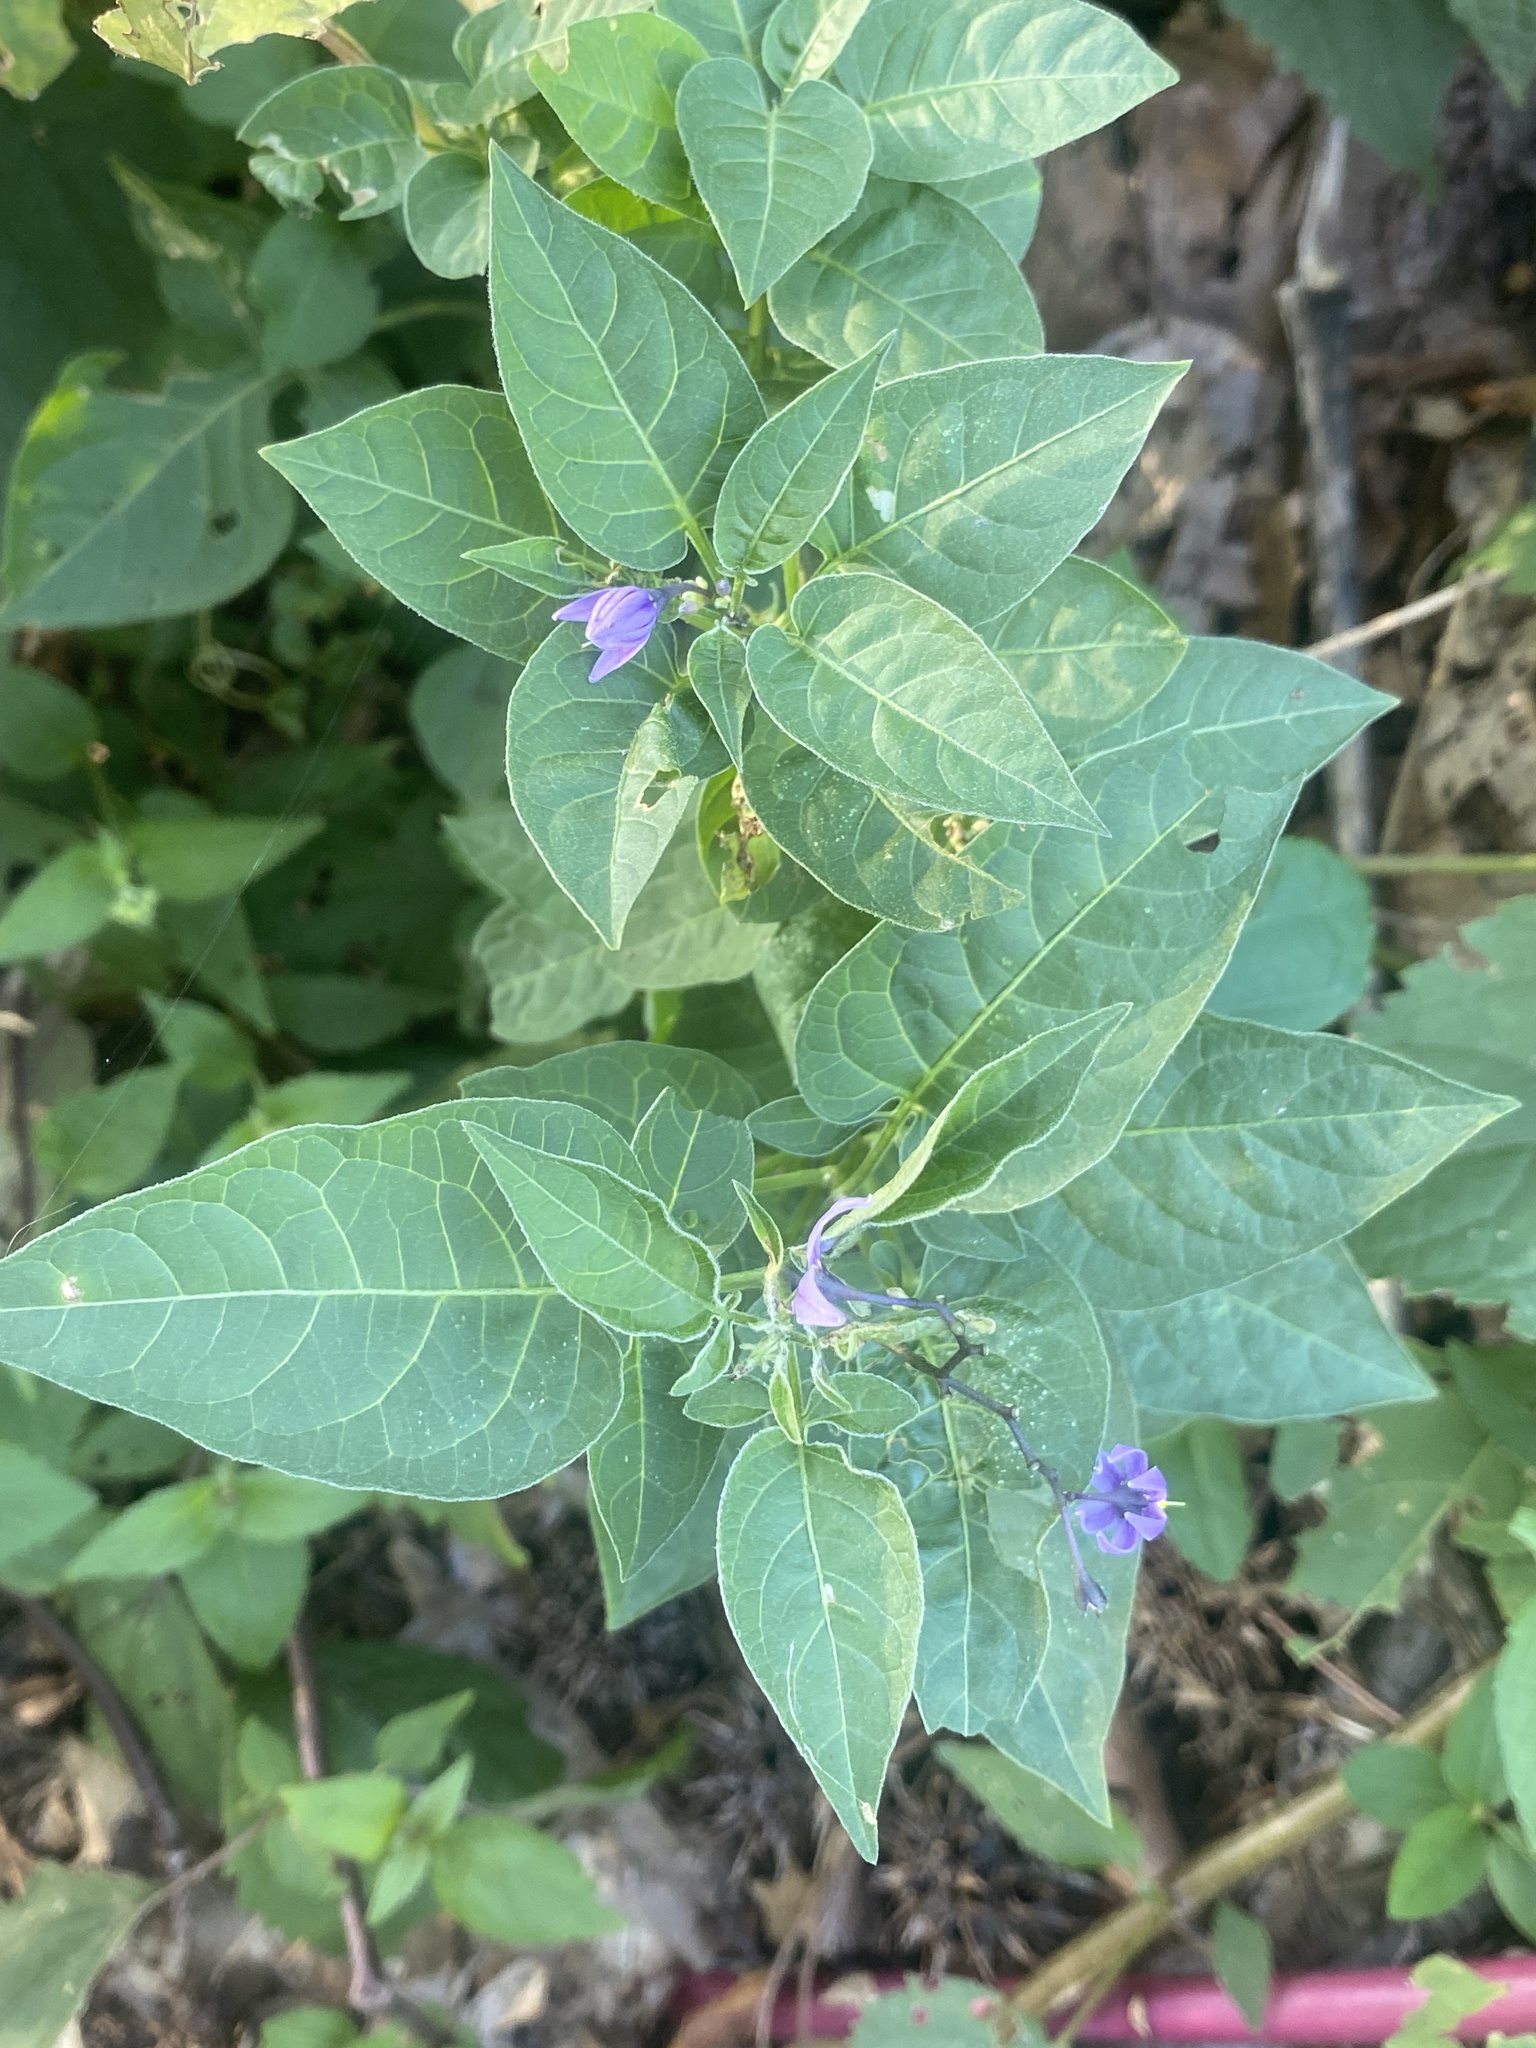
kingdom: Plantae
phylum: Tracheophyta
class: Magnoliopsida
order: Solanales
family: Solanaceae
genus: Solanum
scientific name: Solanum dulcamara
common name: Climbing nightshade
